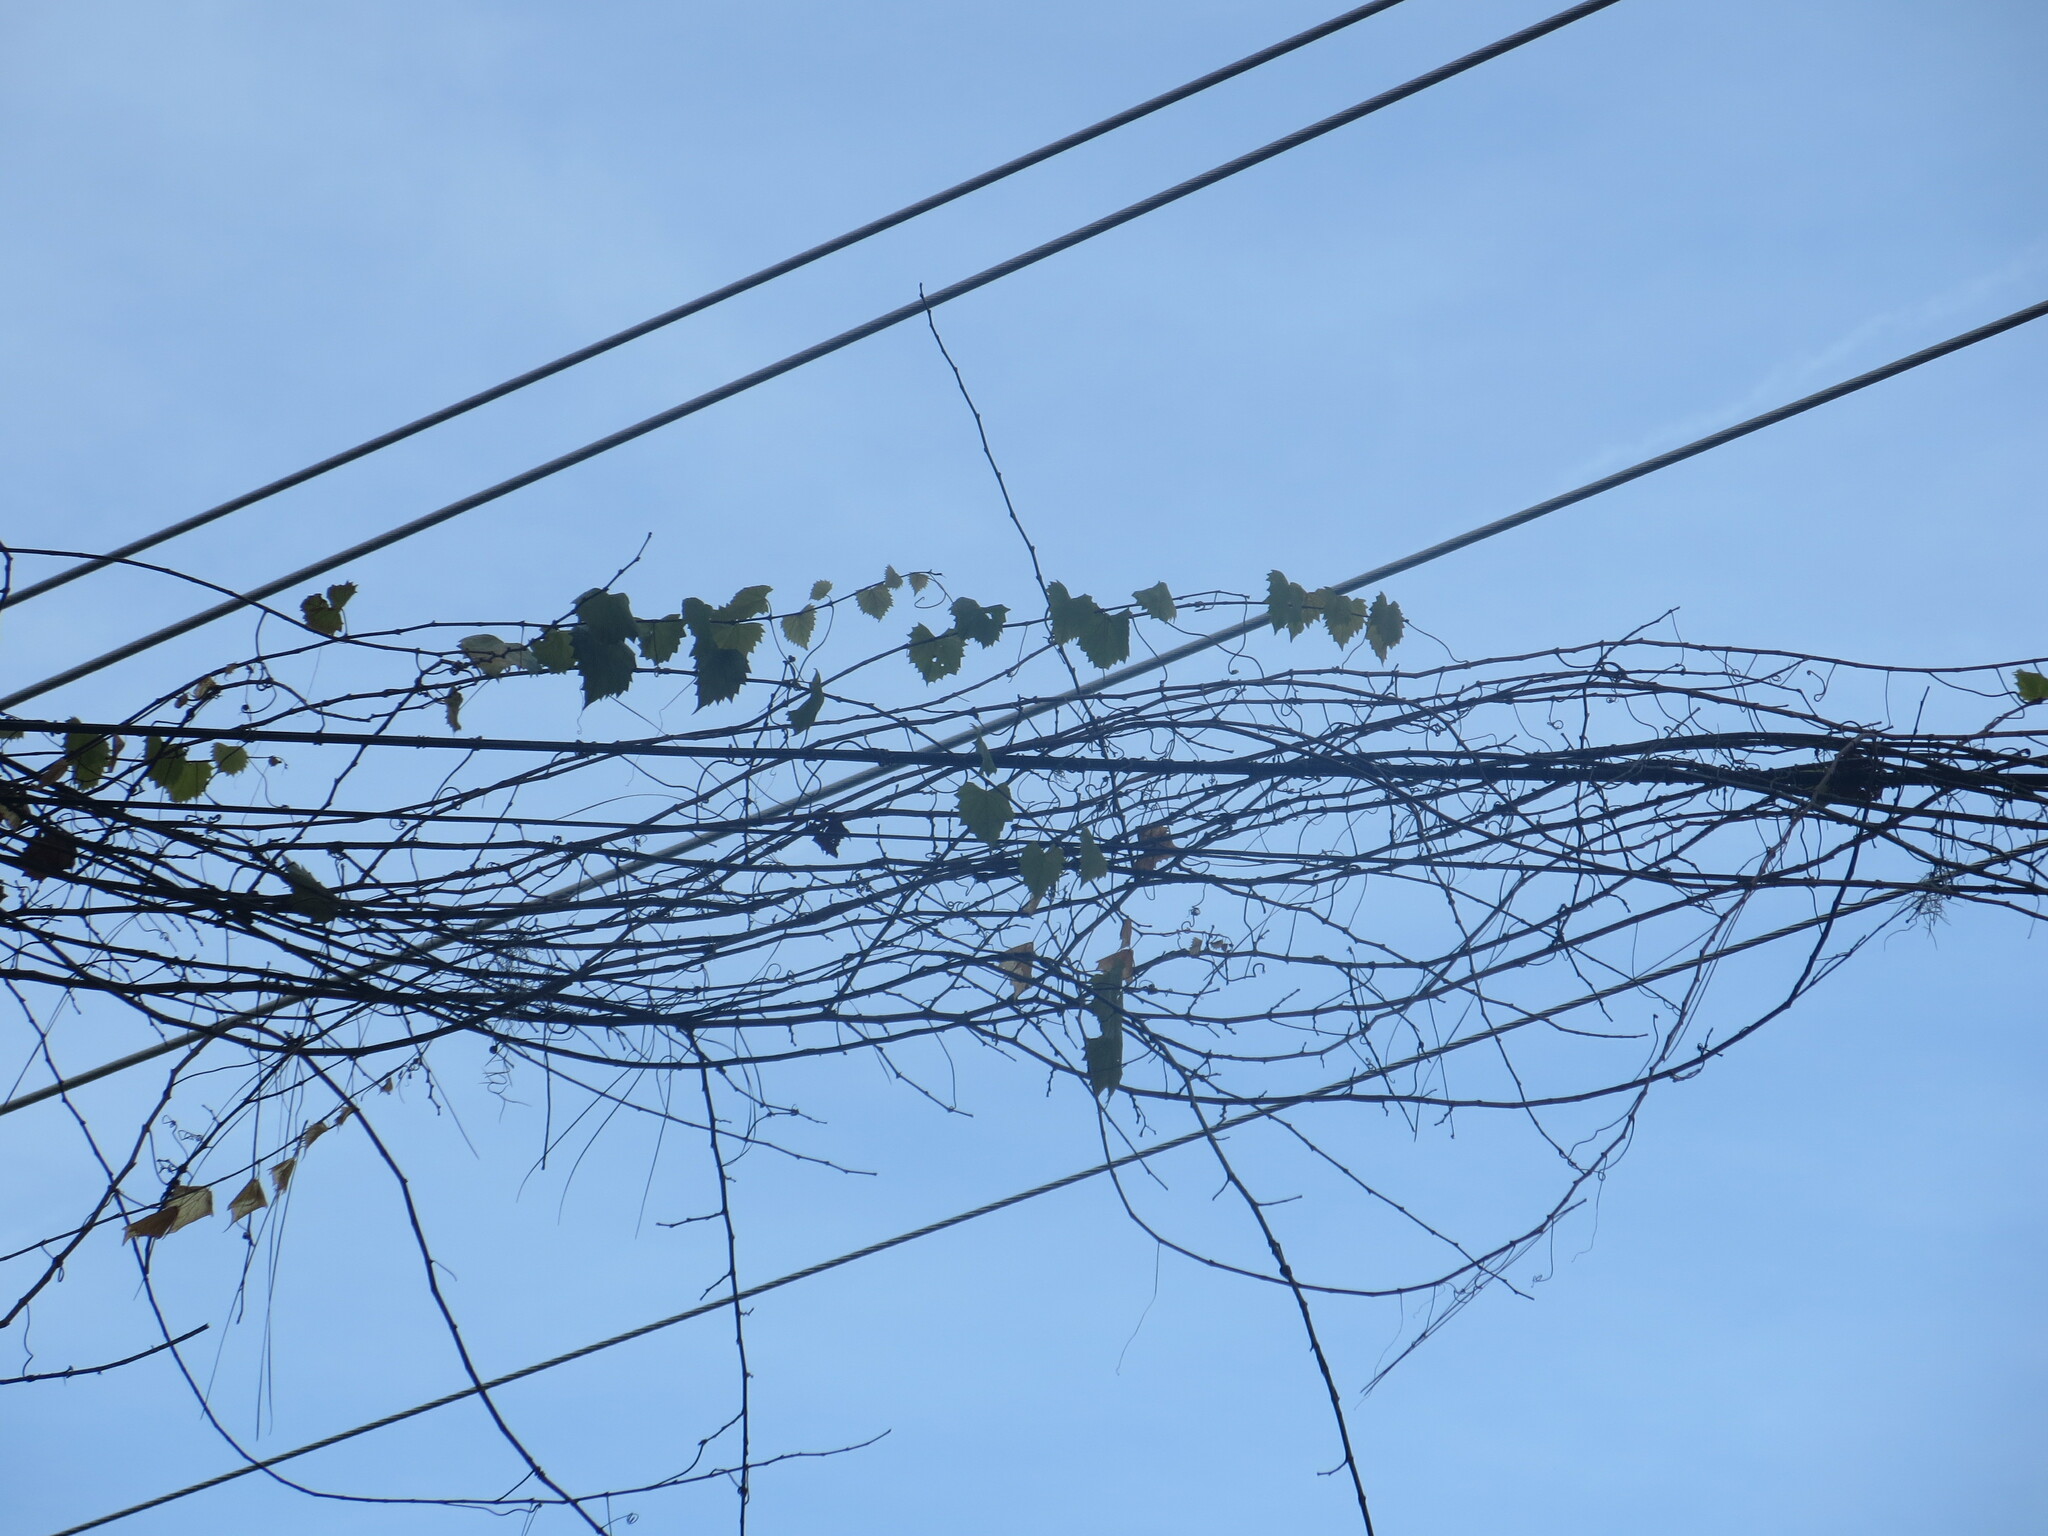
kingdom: Plantae
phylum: Tracheophyta
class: Magnoliopsida
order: Vitales
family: Vitaceae
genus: Vitis
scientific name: Vitis rotundifolia
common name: Muscadine grape
